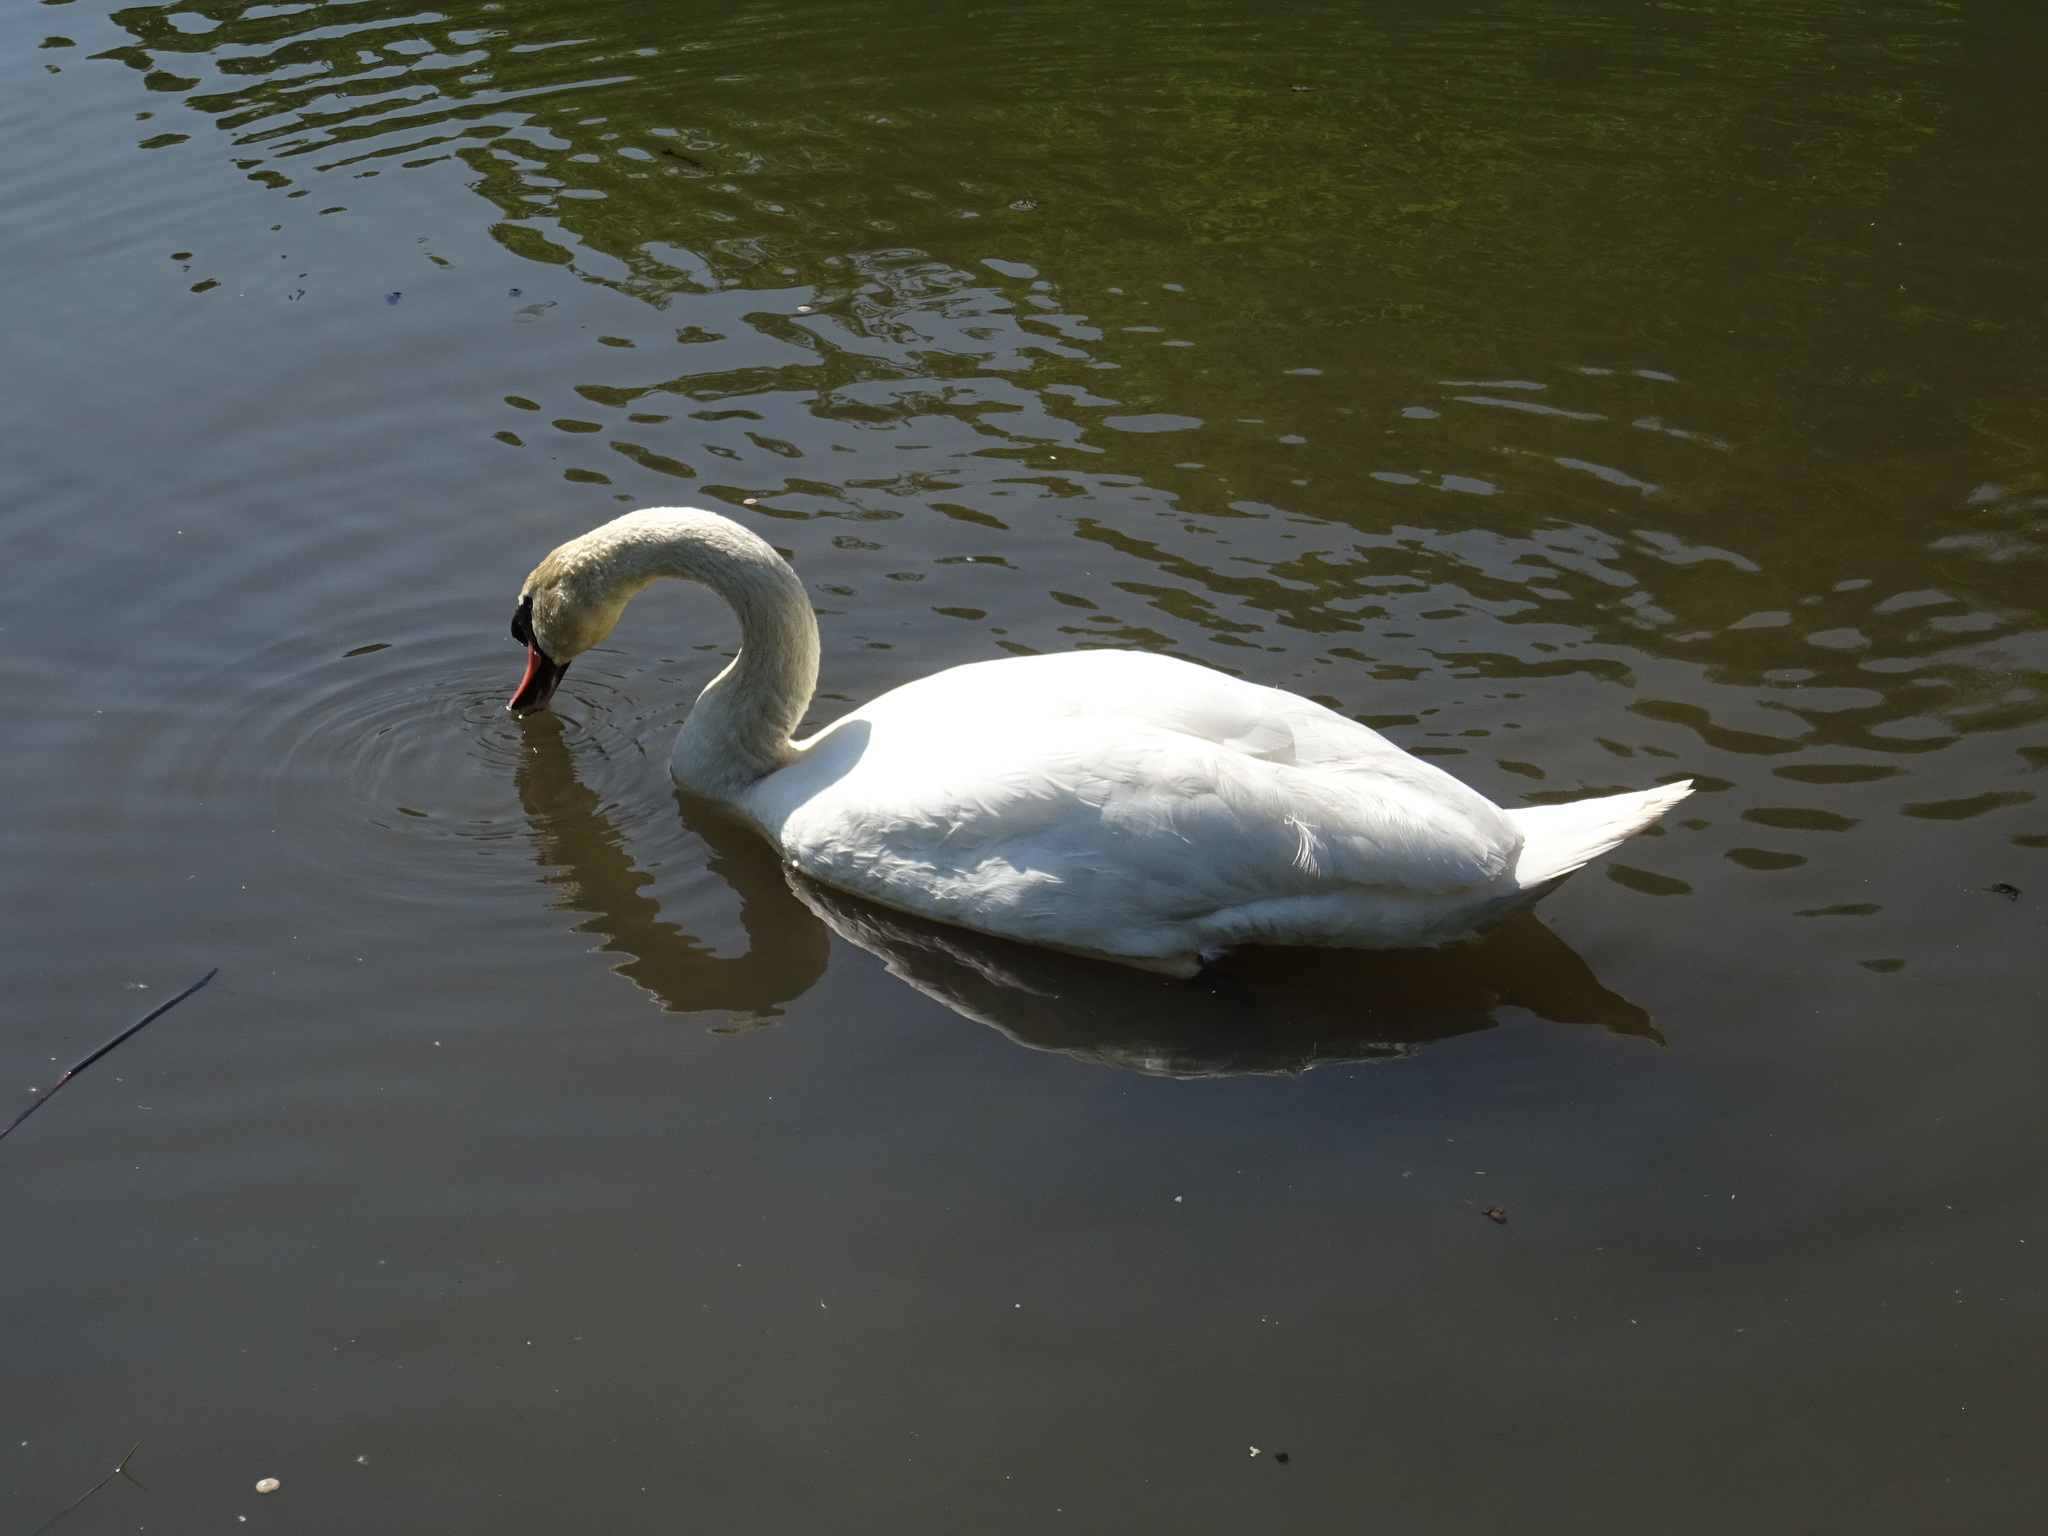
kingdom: Animalia
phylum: Chordata
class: Aves
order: Anseriformes
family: Anatidae
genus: Cygnus
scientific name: Cygnus olor
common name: Mute swan
